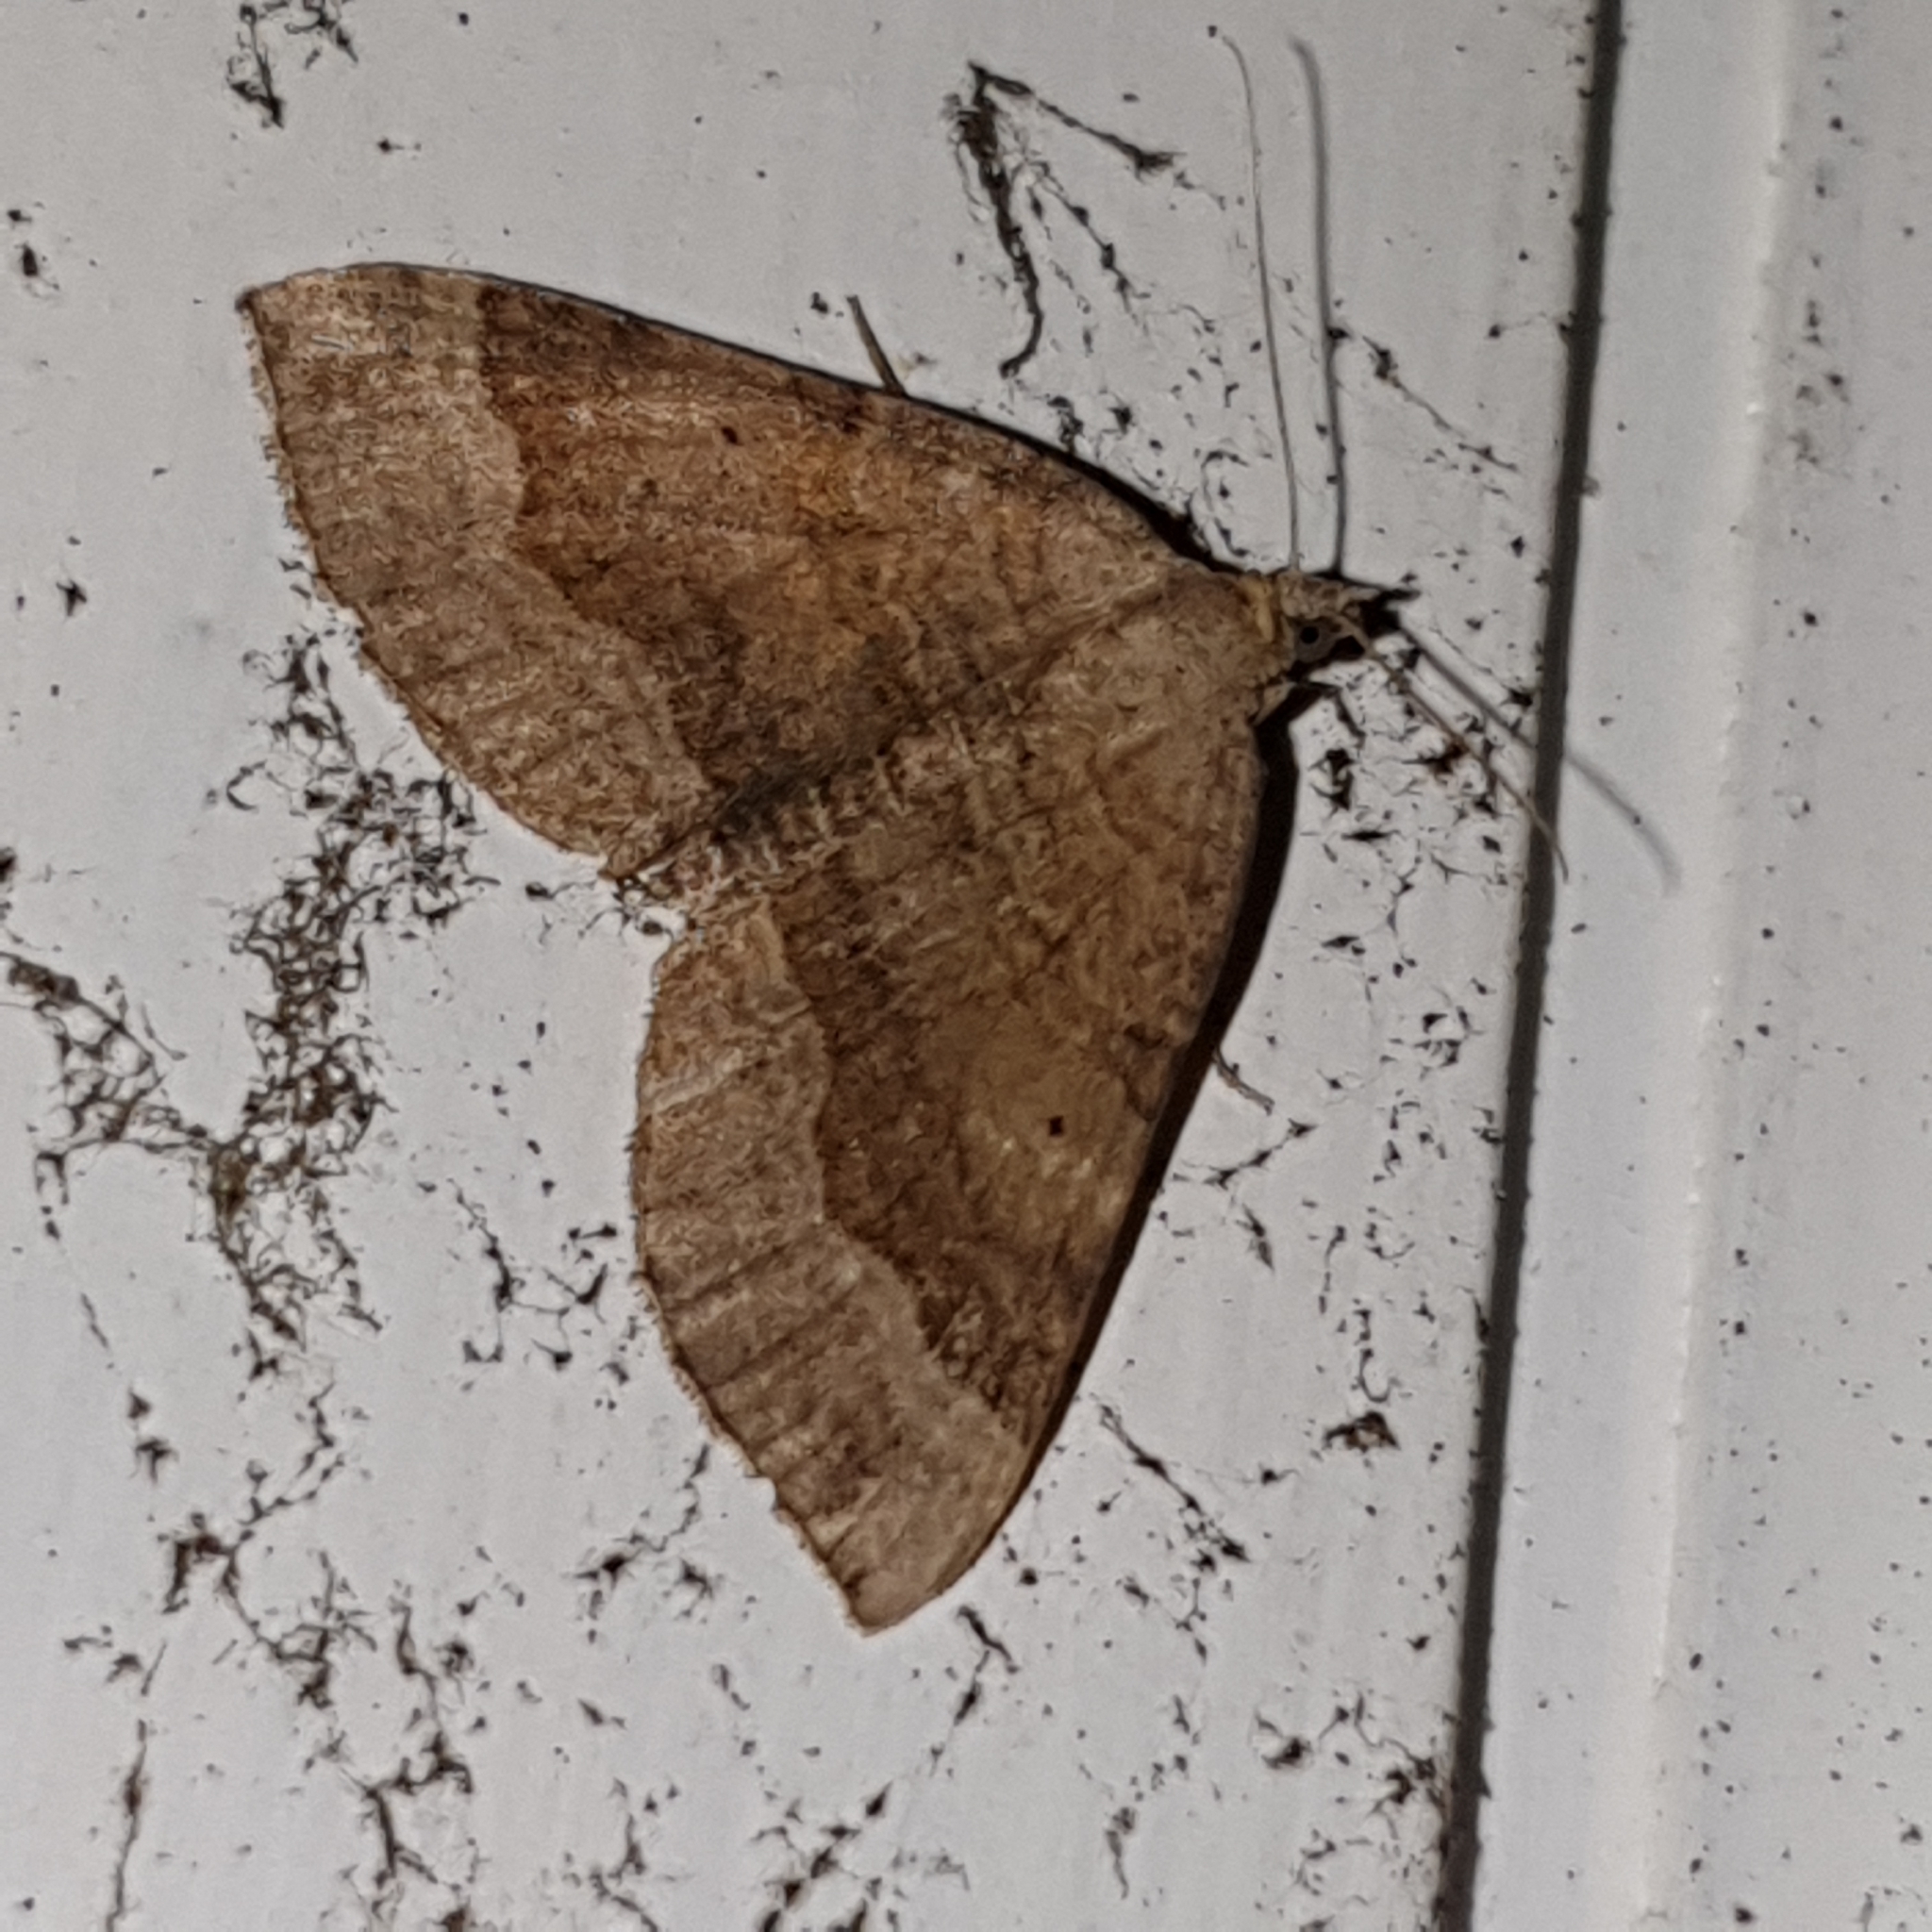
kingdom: Animalia
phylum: Arthropoda
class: Insecta
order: Lepidoptera
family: Geometridae
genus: Scotopteryx
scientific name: Scotopteryx chenopodiata
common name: Shaded broad-bar
